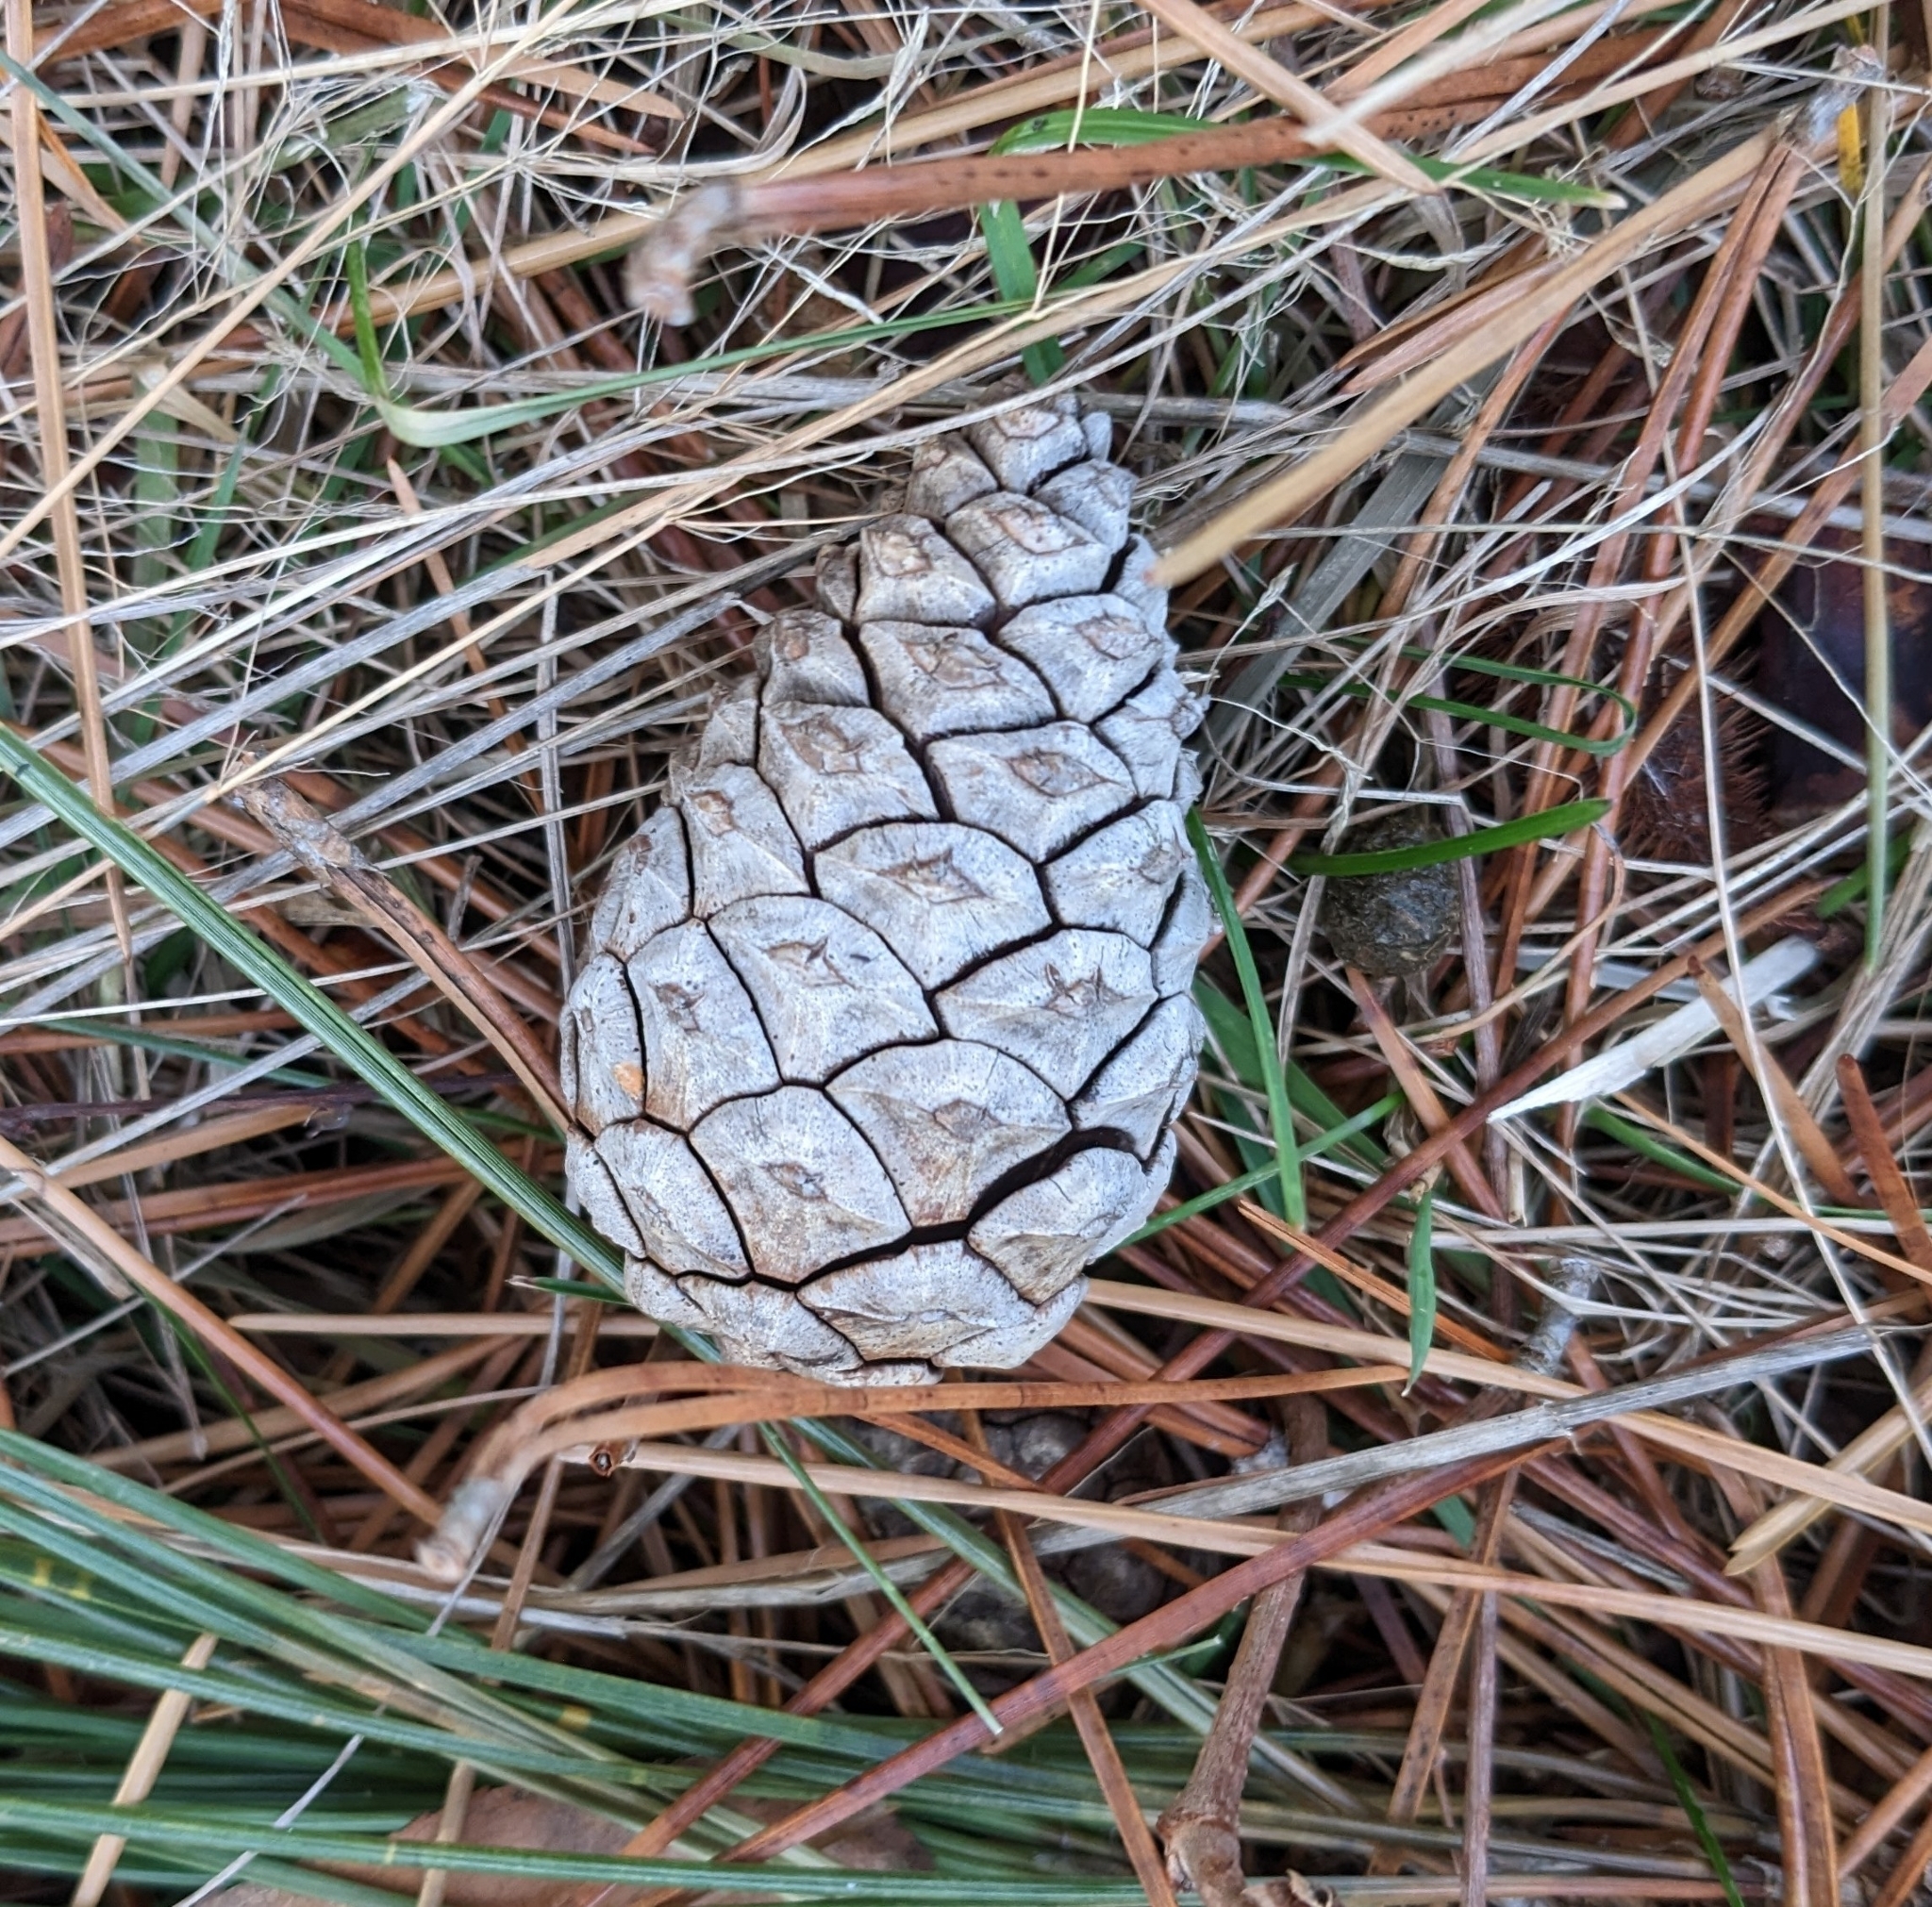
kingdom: Plantae
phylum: Tracheophyta
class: Pinopsida
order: Pinales
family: Pinaceae
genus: Pinus
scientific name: Pinus resinosa
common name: Norway pine
